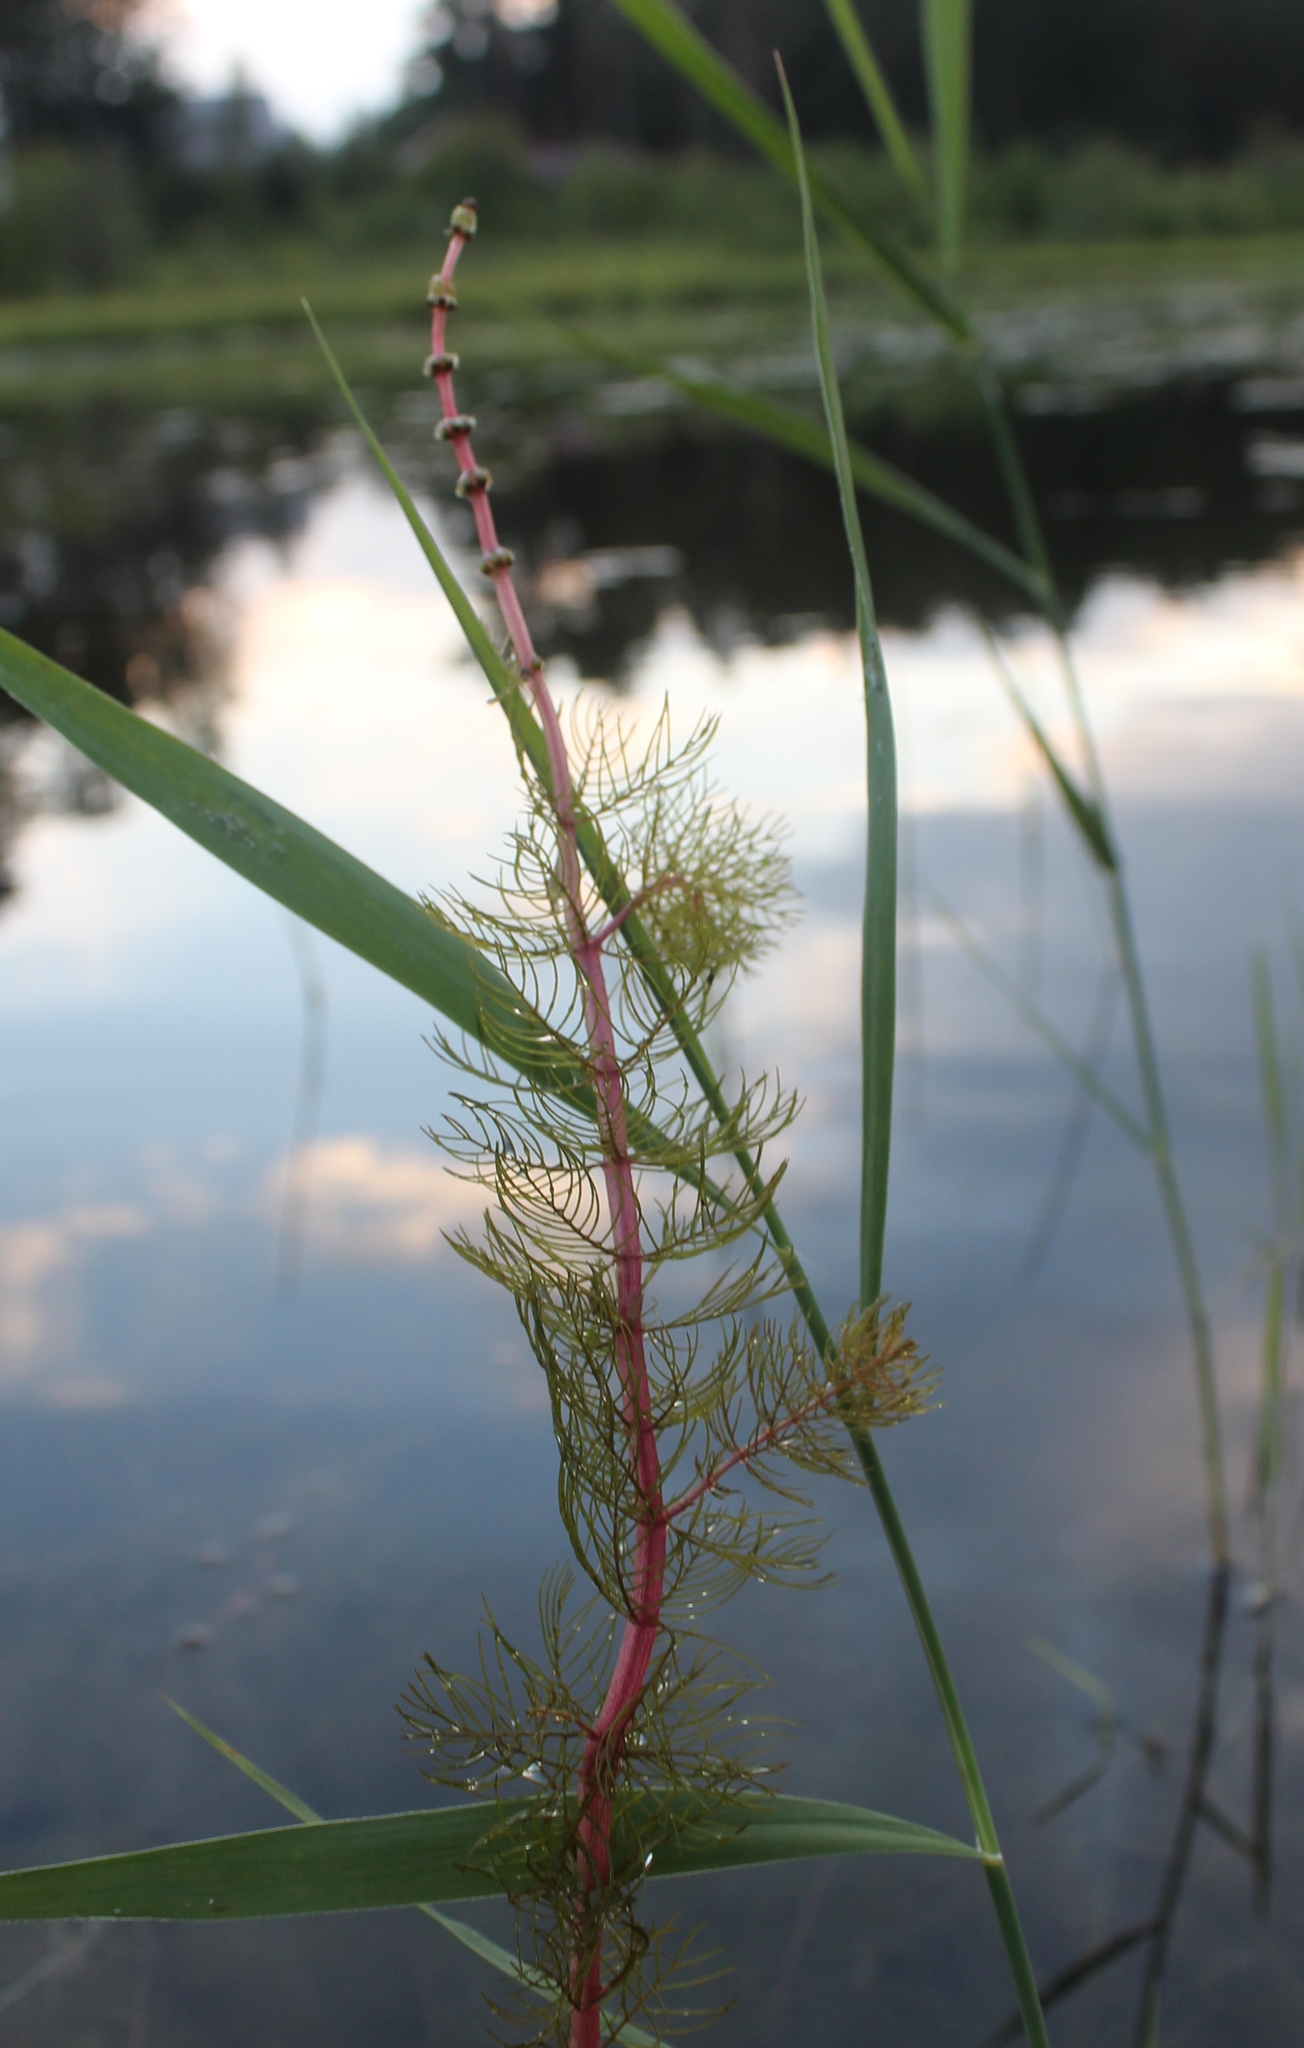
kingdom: Plantae
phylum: Tracheophyta
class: Magnoliopsida
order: Saxifragales
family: Haloragaceae
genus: Myriophyllum
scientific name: Myriophyllum sibiricum
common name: Siberian water-milfoil
